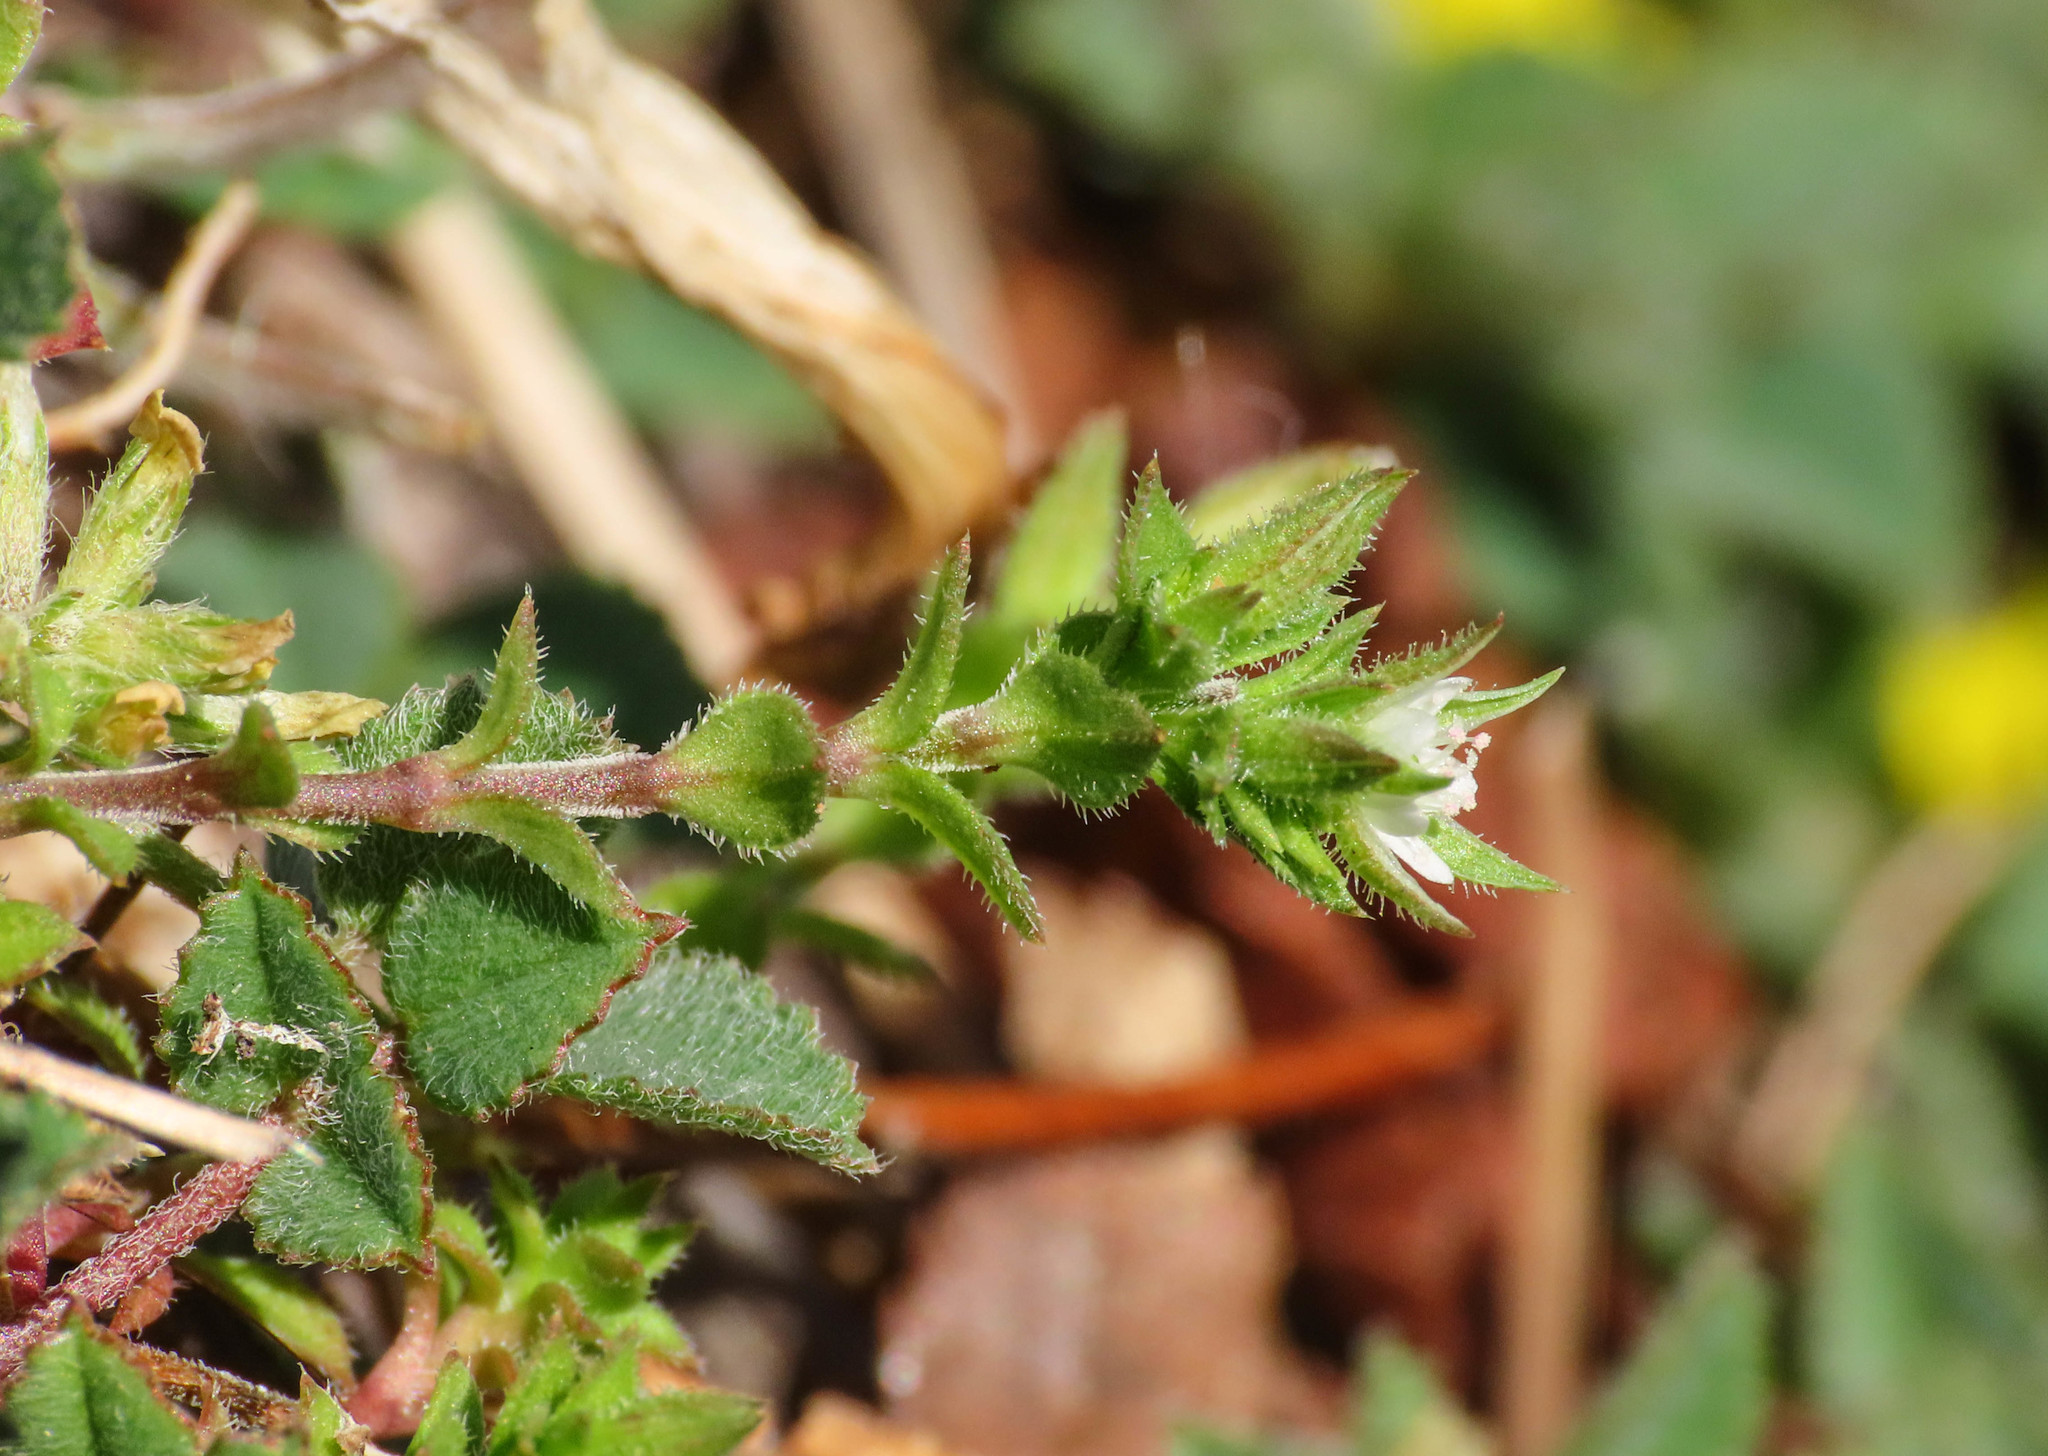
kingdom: Plantae
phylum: Tracheophyta
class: Magnoliopsida
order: Caryophyllales
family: Caryophyllaceae
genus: Arenaria
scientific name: Arenaria leptoclados
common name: Thyme-leaved sandwort
